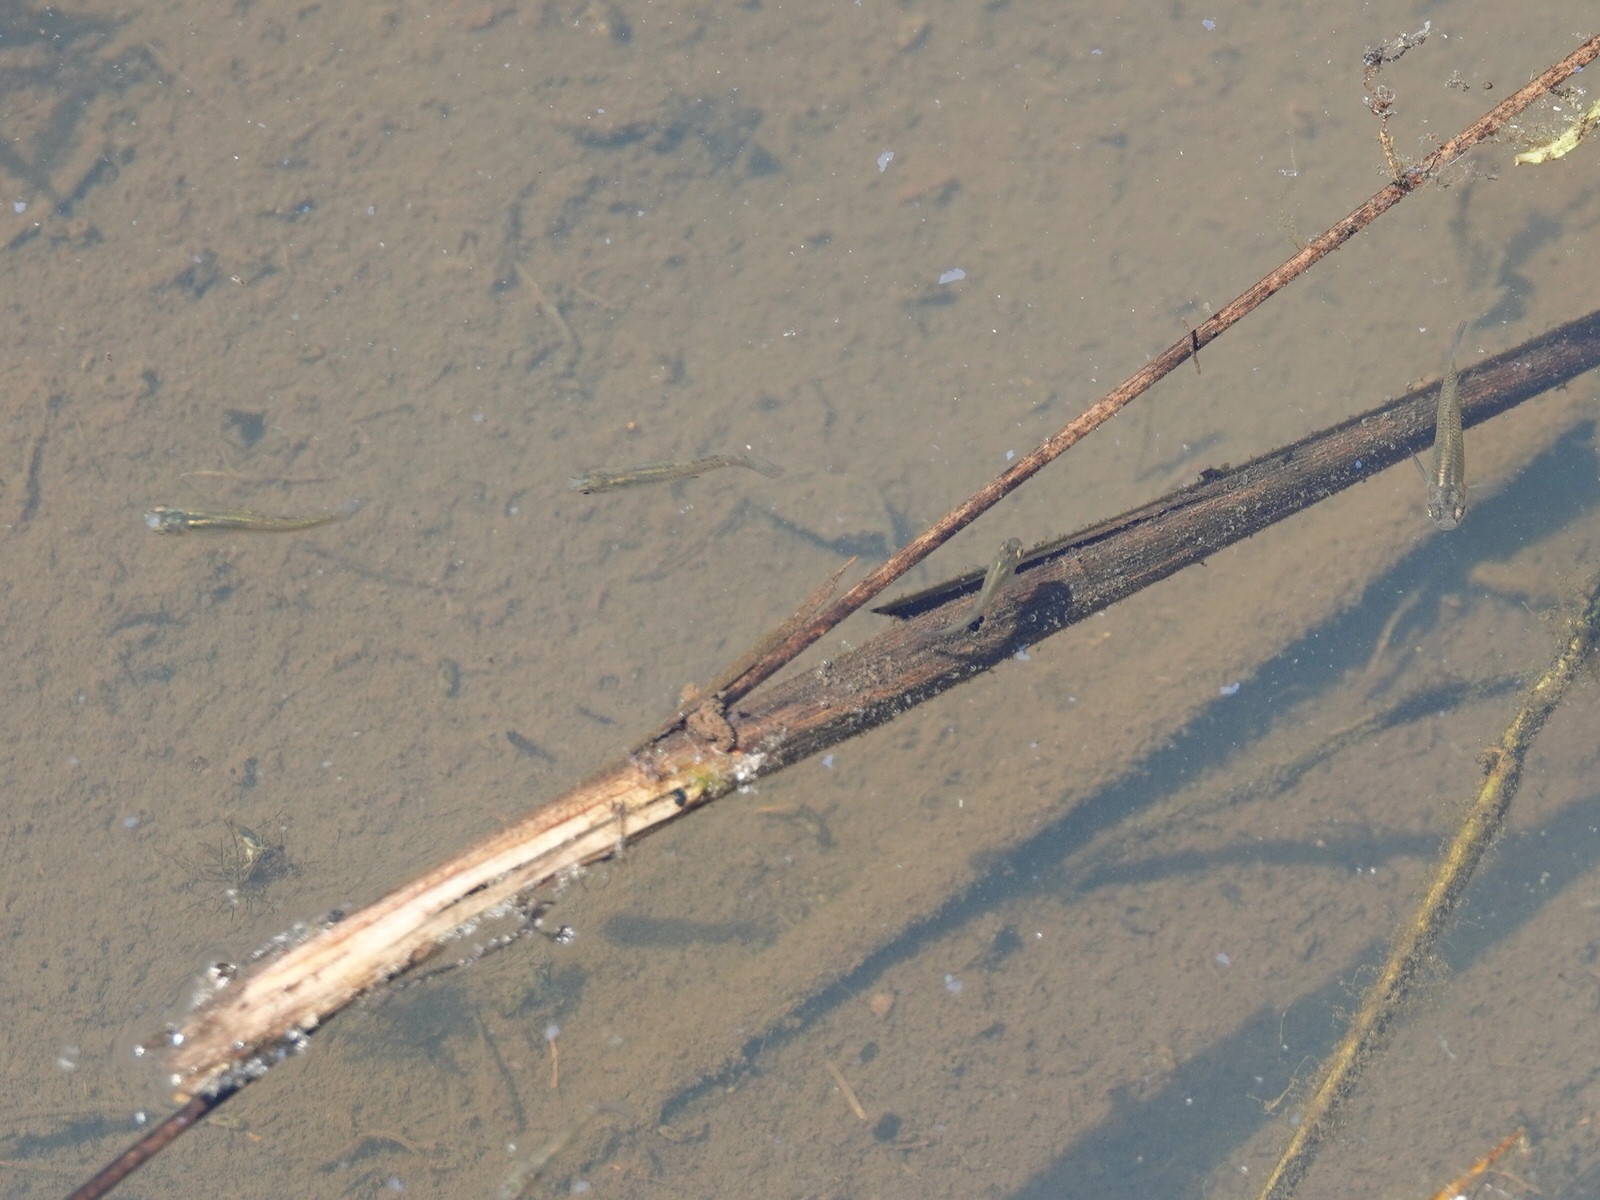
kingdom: Animalia
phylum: Chordata
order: Cyprinodontiformes
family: Poeciliidae
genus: Gambusia
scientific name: Gambusia affinis
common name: Mosquitofish
